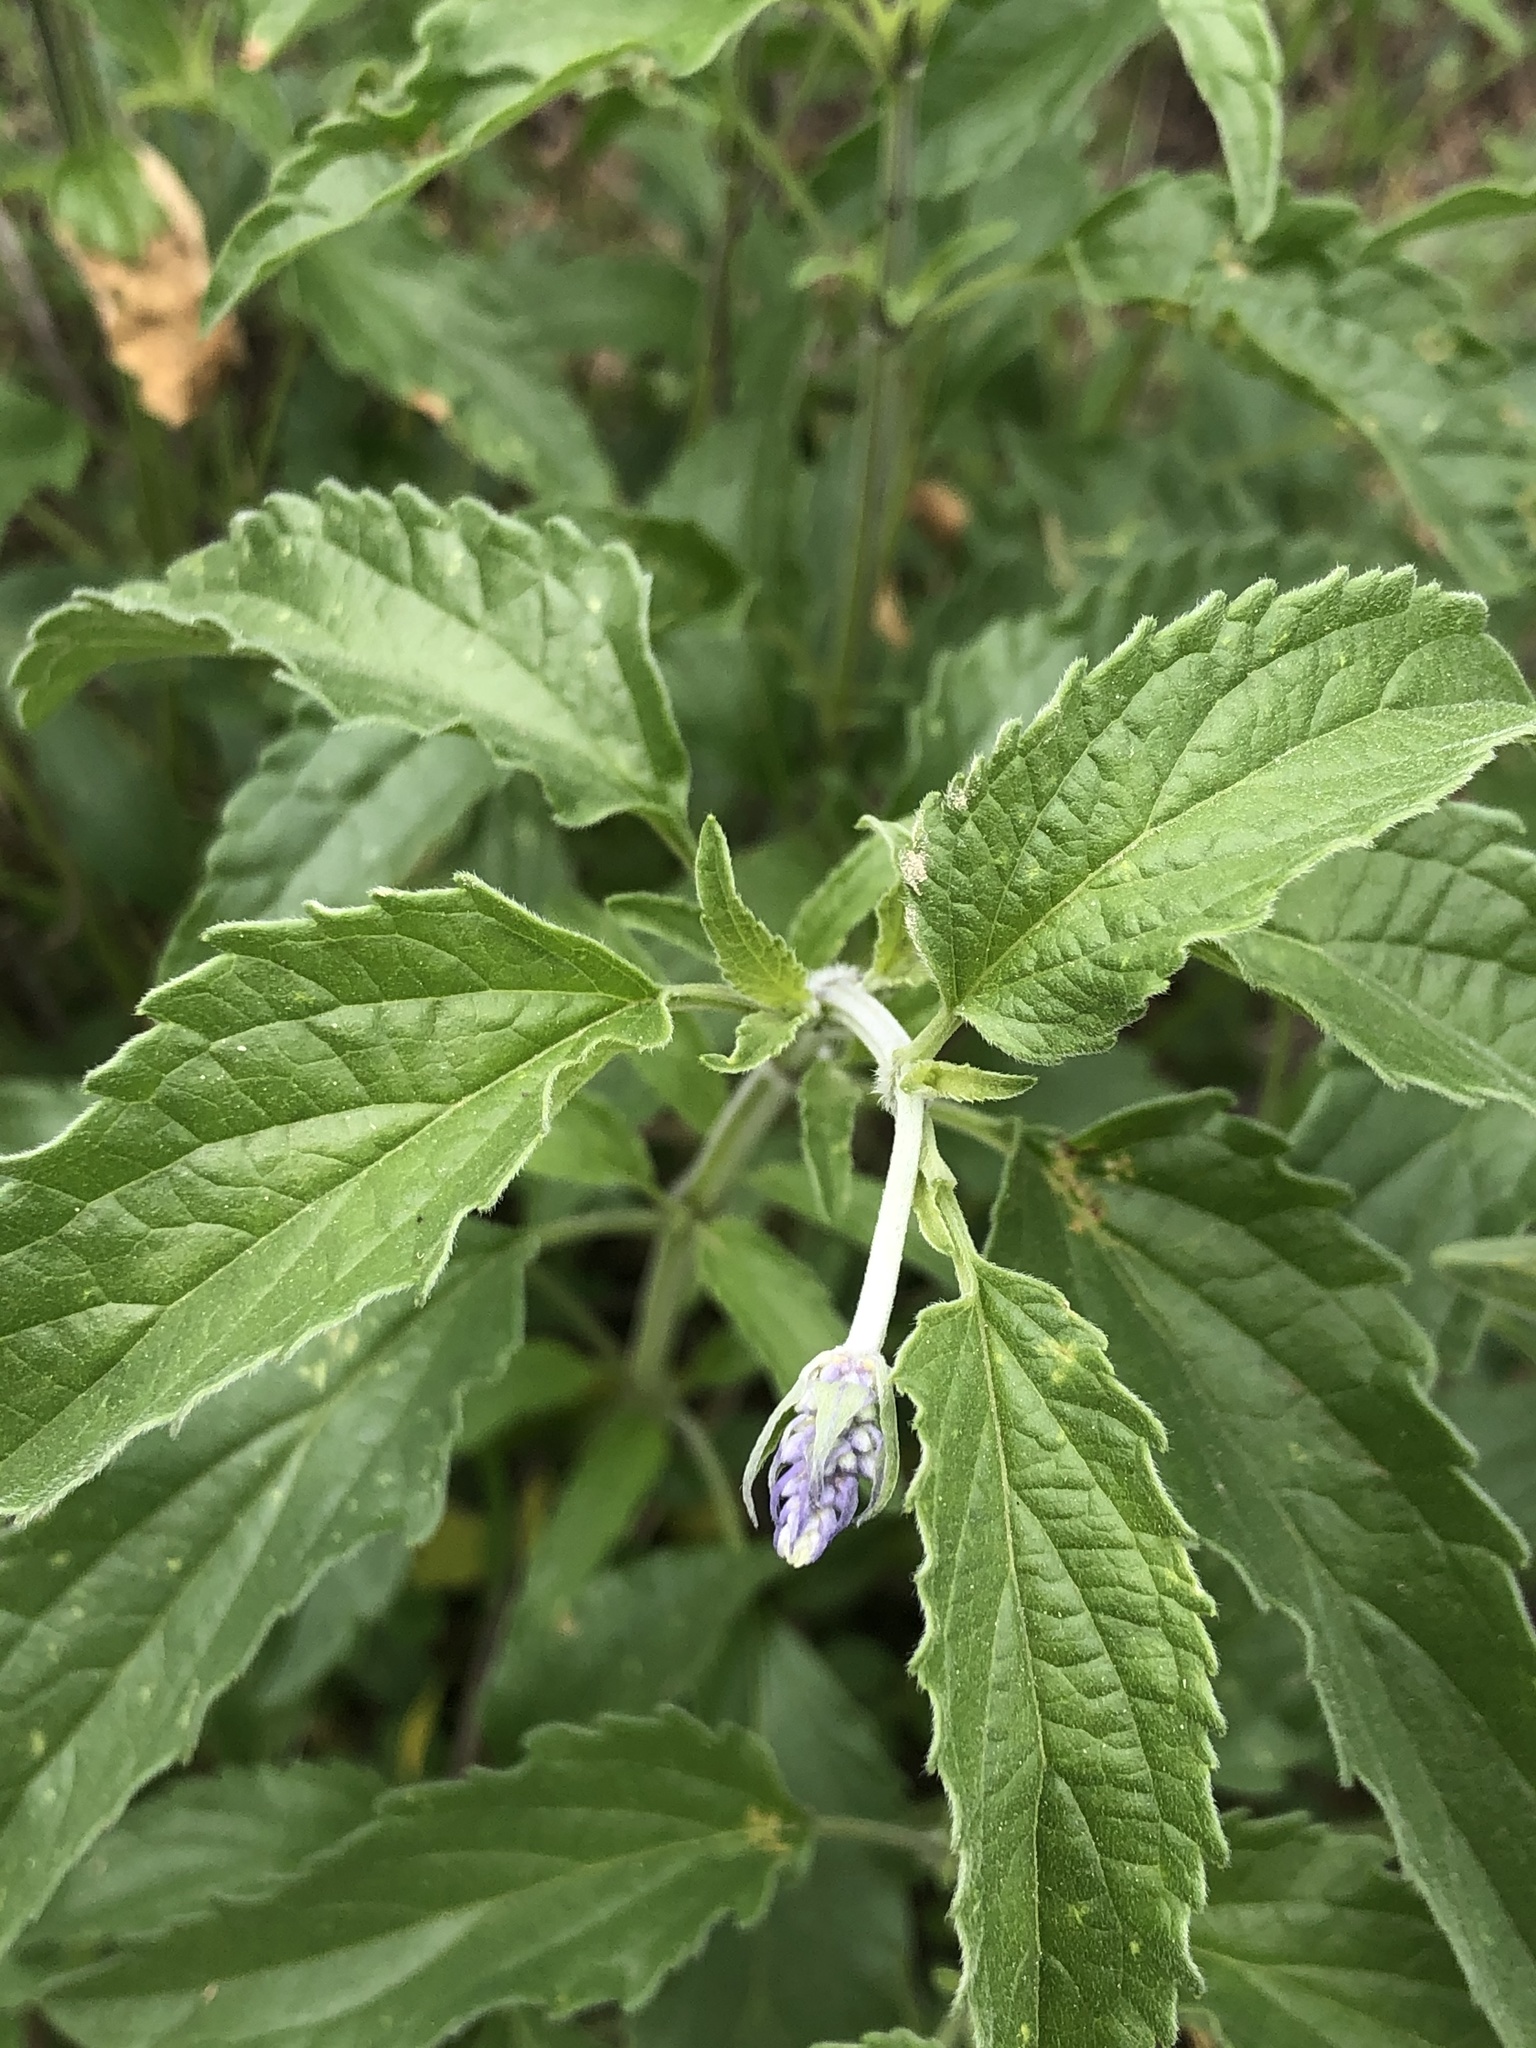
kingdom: Plantae
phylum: Tracheophyta
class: Magnoliopsida
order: Lamiales
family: Lamiaceae
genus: Salvia
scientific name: Salvia farinacea
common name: Mealy sage
